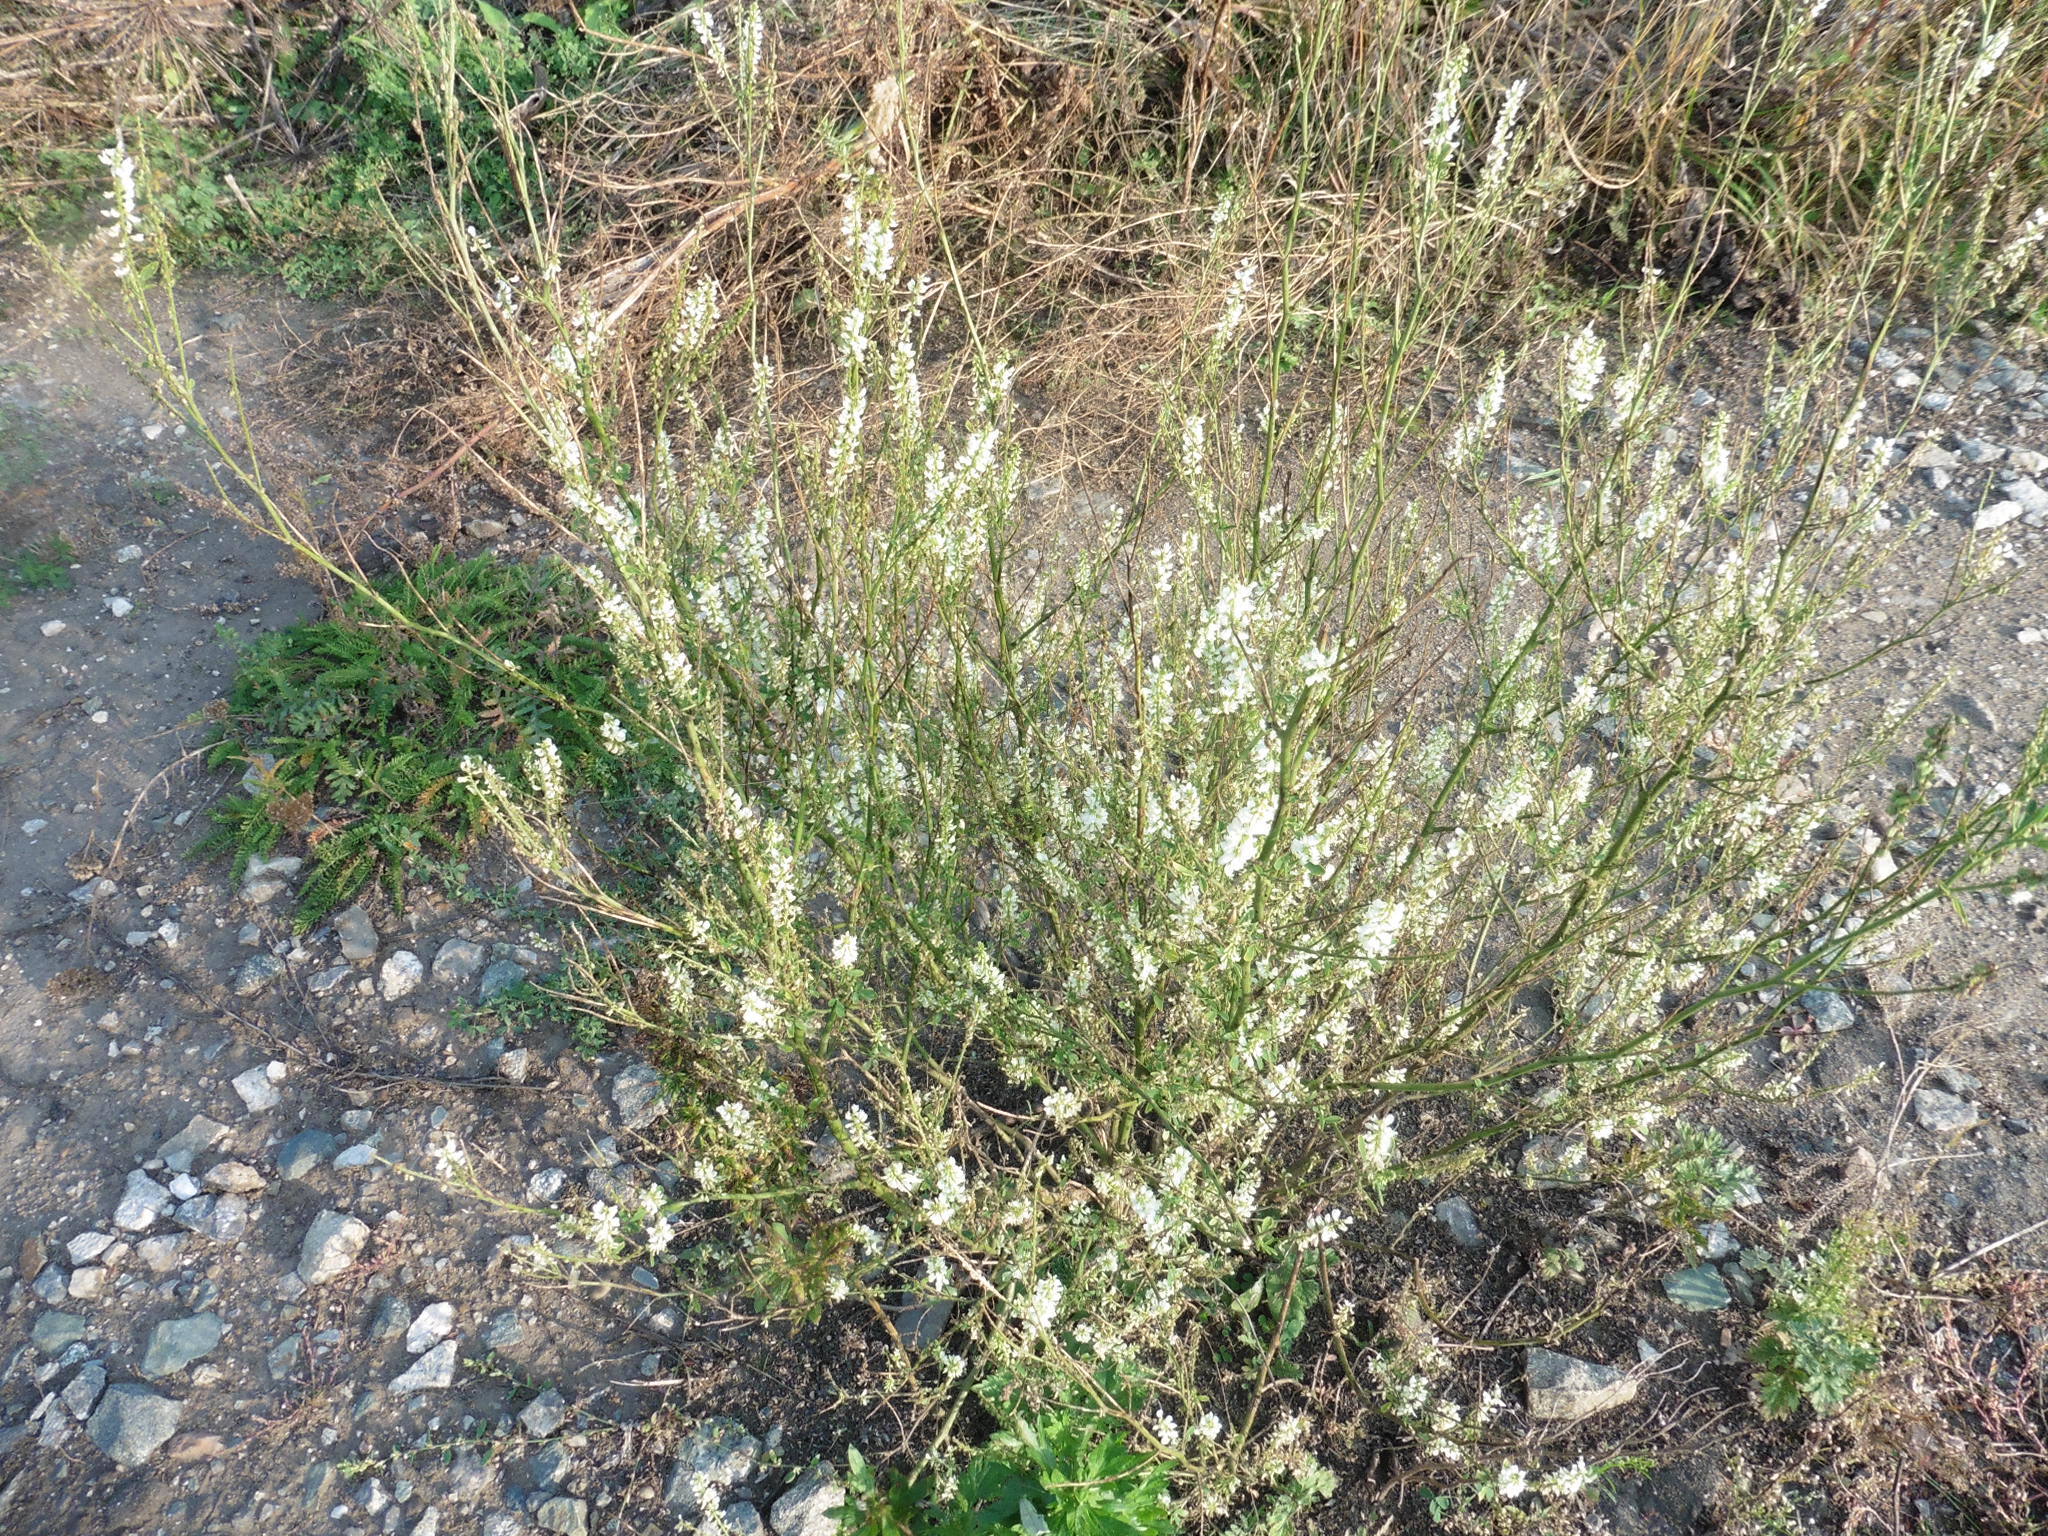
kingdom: Plantae
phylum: Tracheophyta
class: Magnoliopsida
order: Fabales
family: Fabaceae
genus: Melilotus
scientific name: Melilotus albus
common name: White melilot
